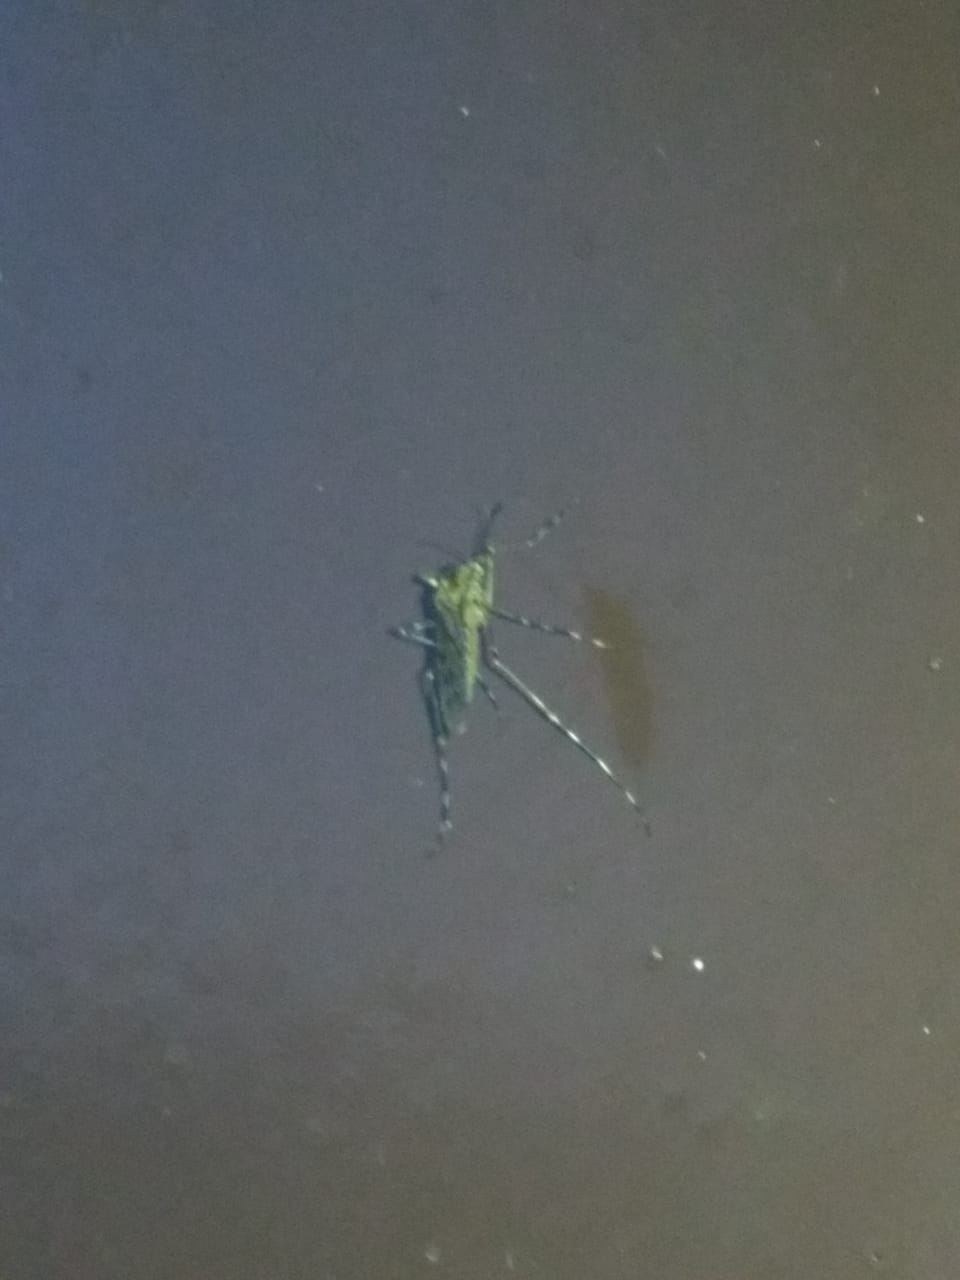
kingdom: Animalia
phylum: Arthropoda
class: Insecta
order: Diptera
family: Culicidae
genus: Culiseta
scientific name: Culiseta annulata
